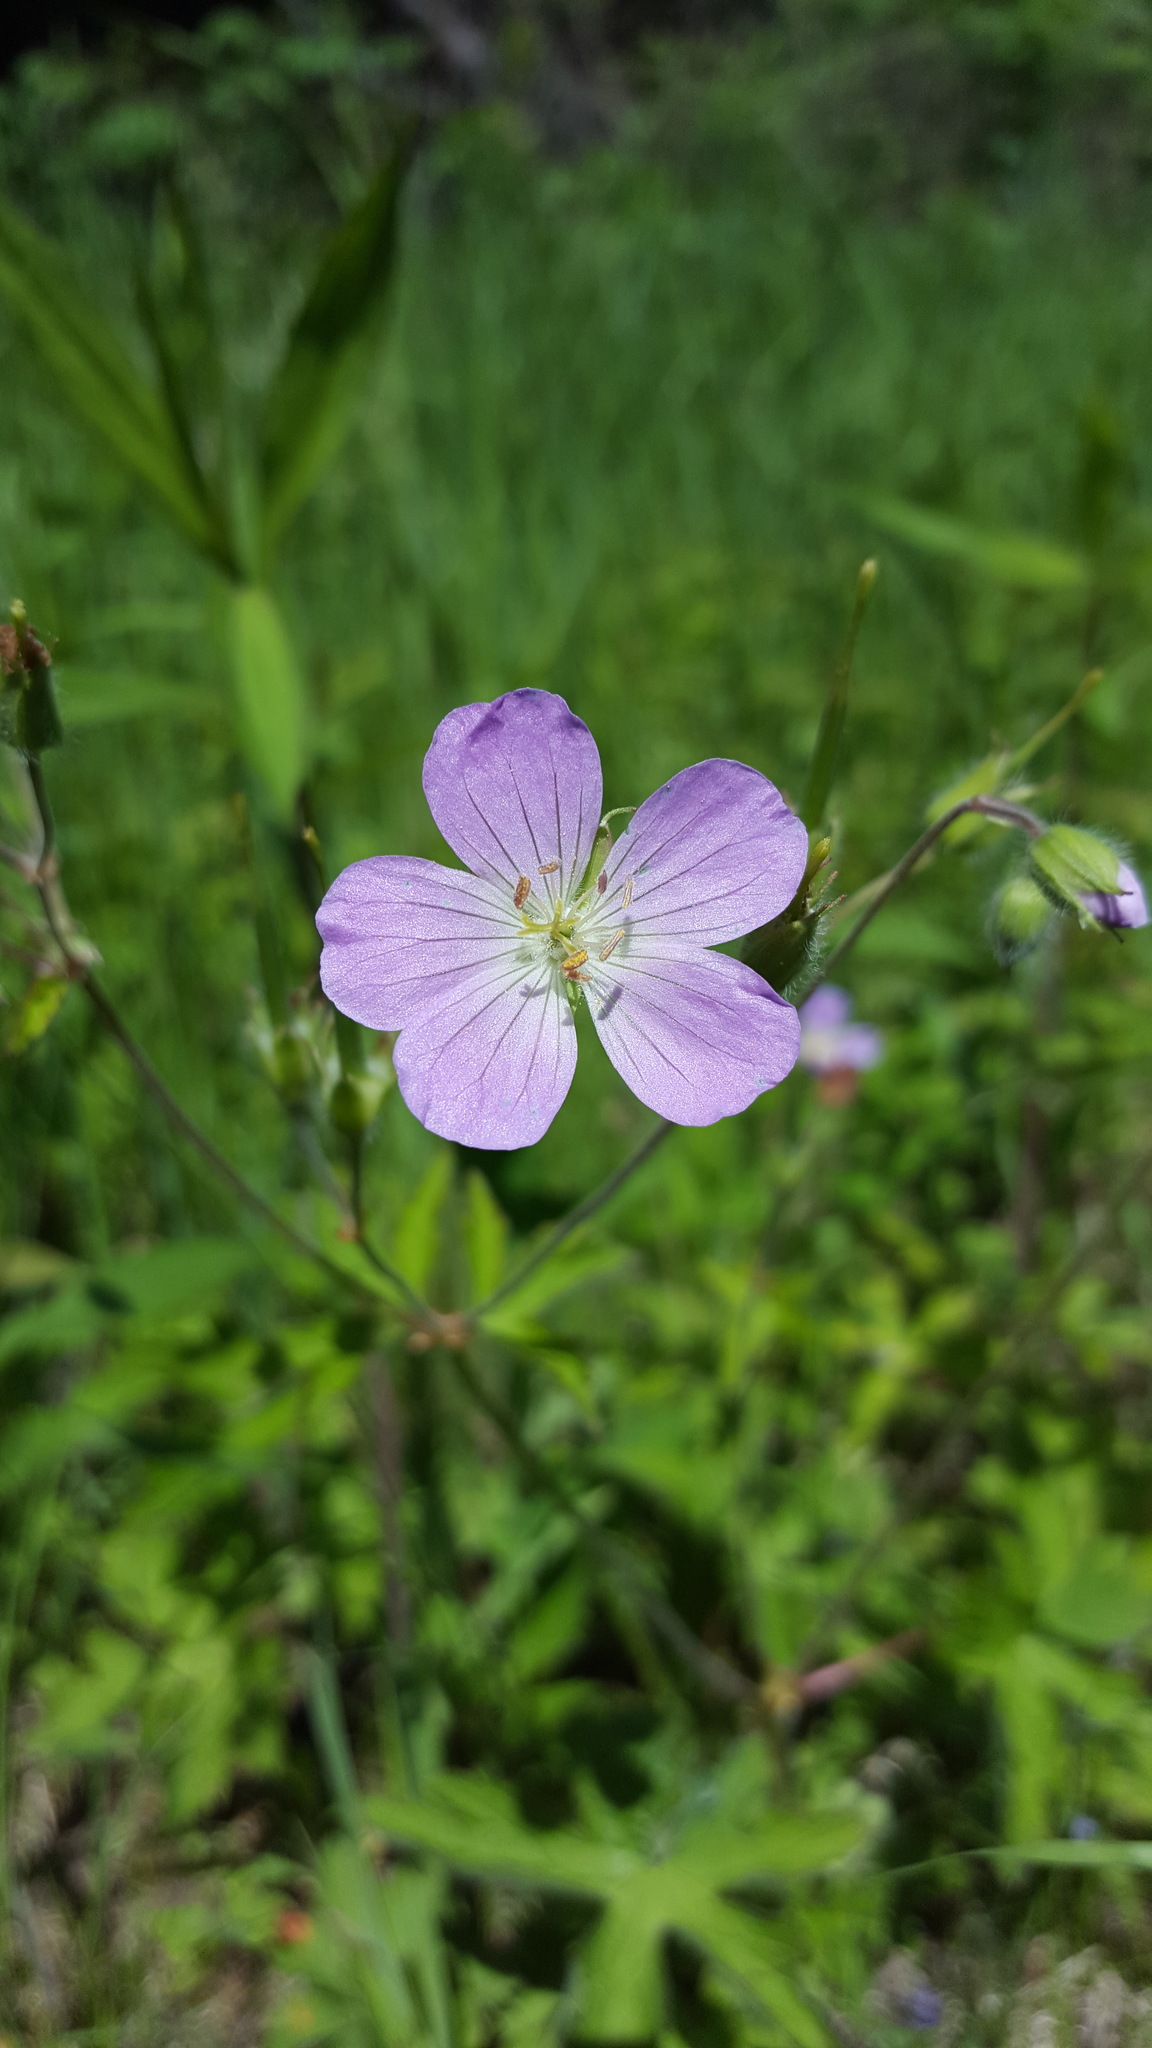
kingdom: Plantae
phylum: Tracheophyta
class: Magnoliopsida
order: Geraniales
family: Geraniaceae
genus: Geranium
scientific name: Geranium maculatum
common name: Spotted geranium
